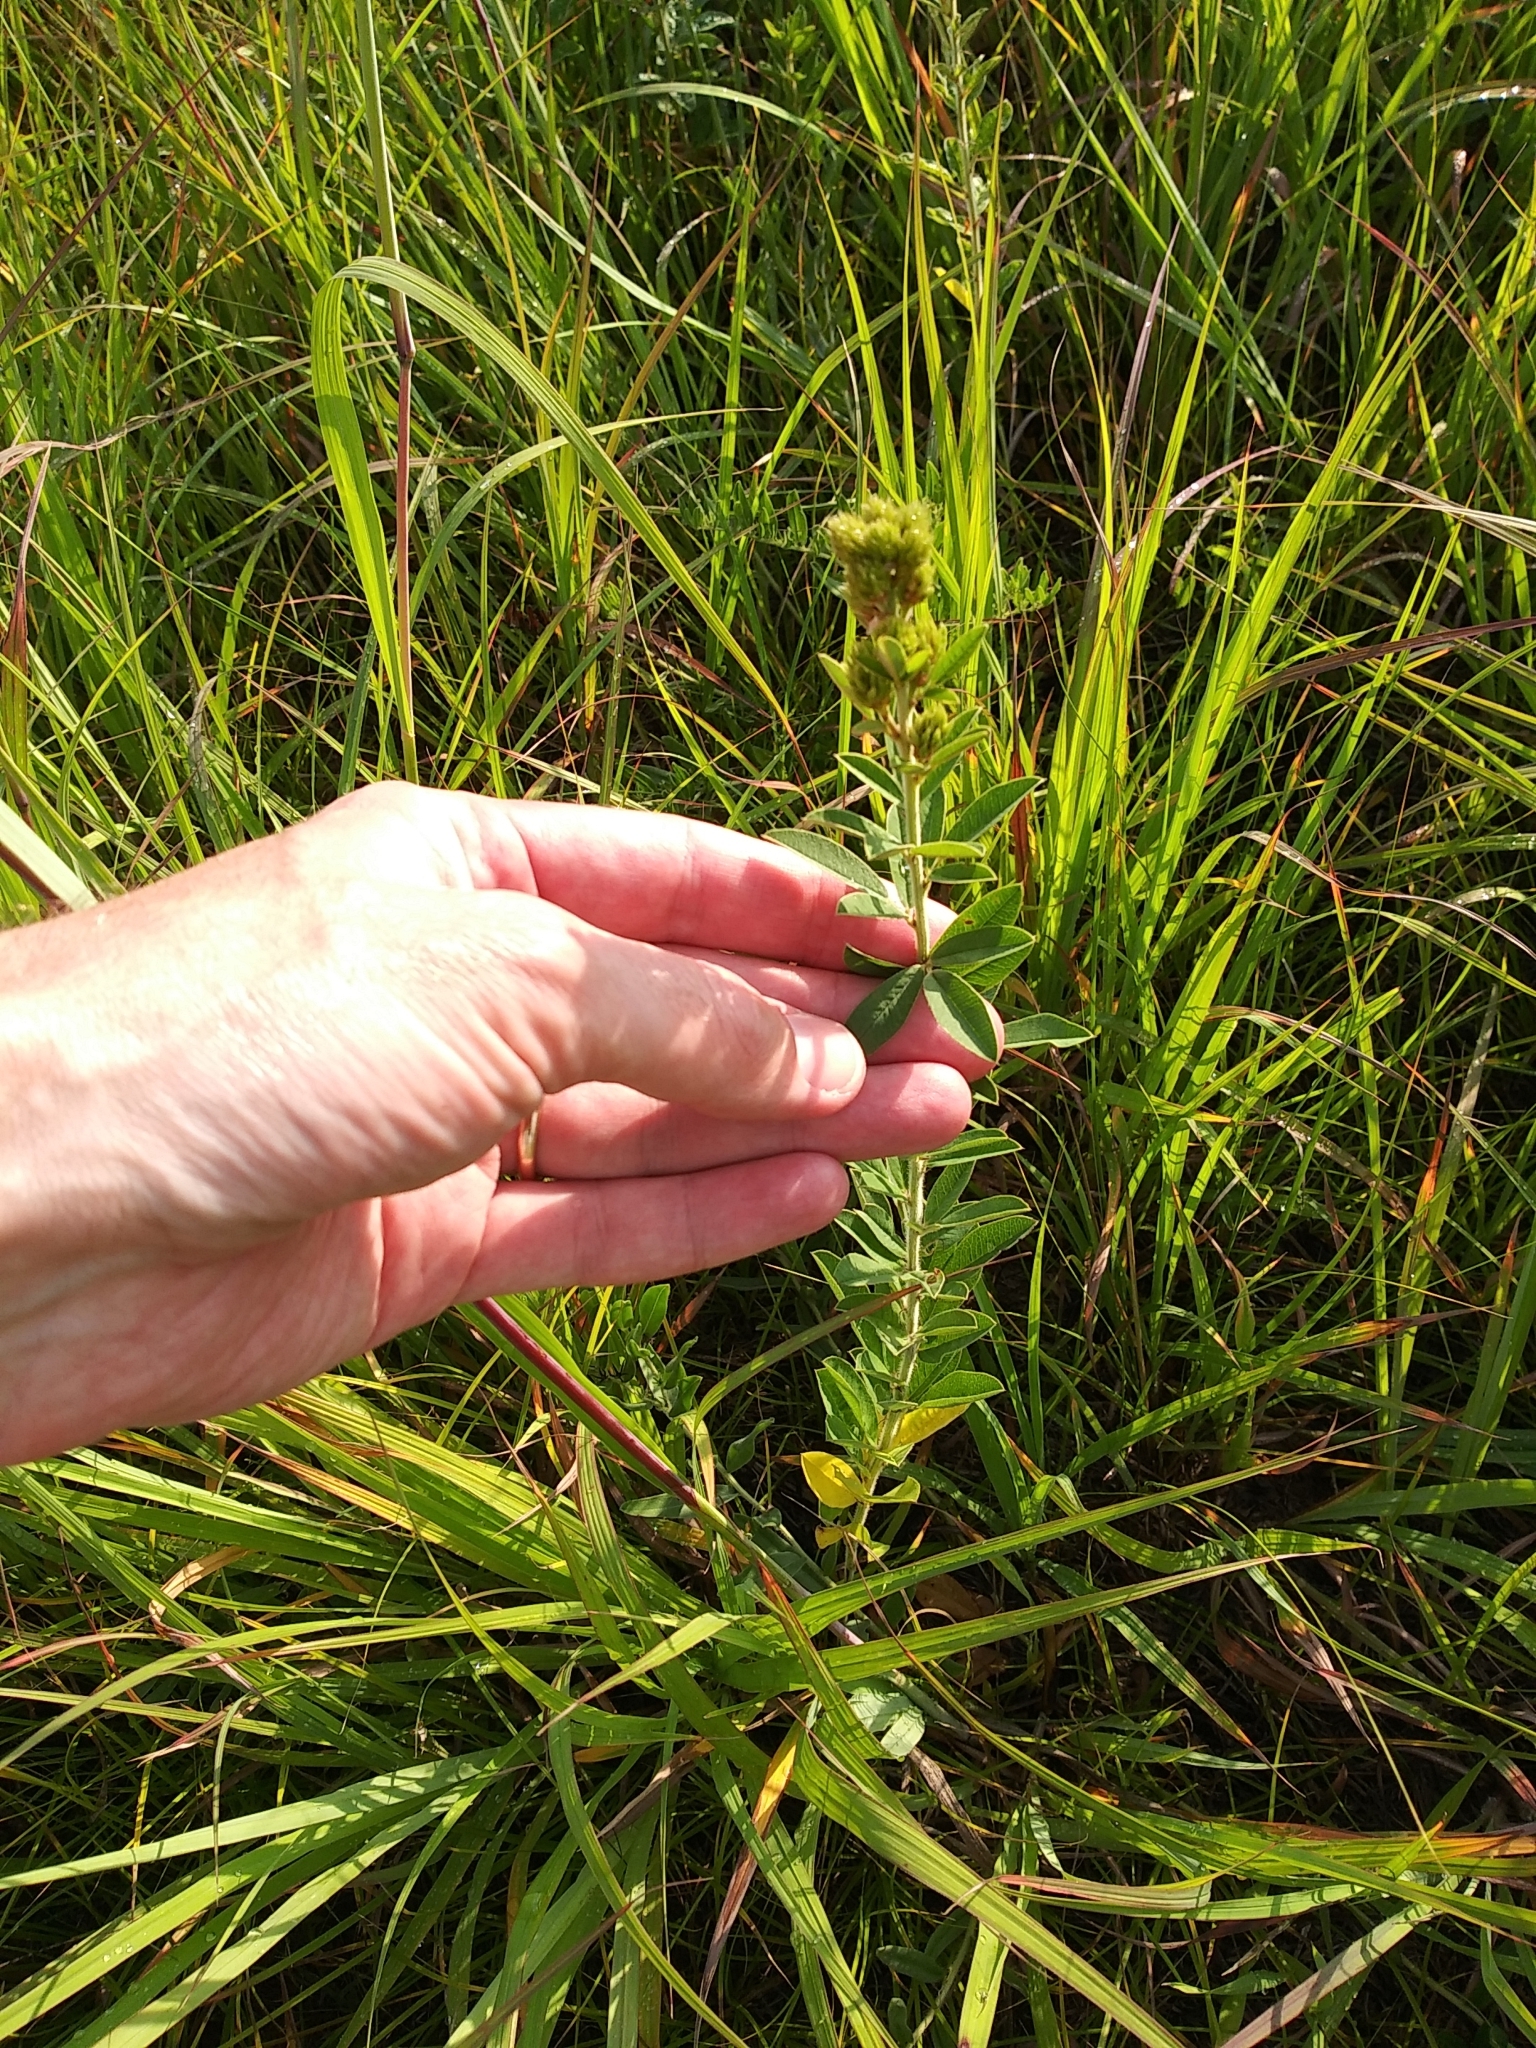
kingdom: Plantae
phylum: Tracheophyta
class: Magnoliopsida
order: Fabales
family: Fabaceae
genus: Lespedeza
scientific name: Lespedeza capitata
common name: Dusty clover
